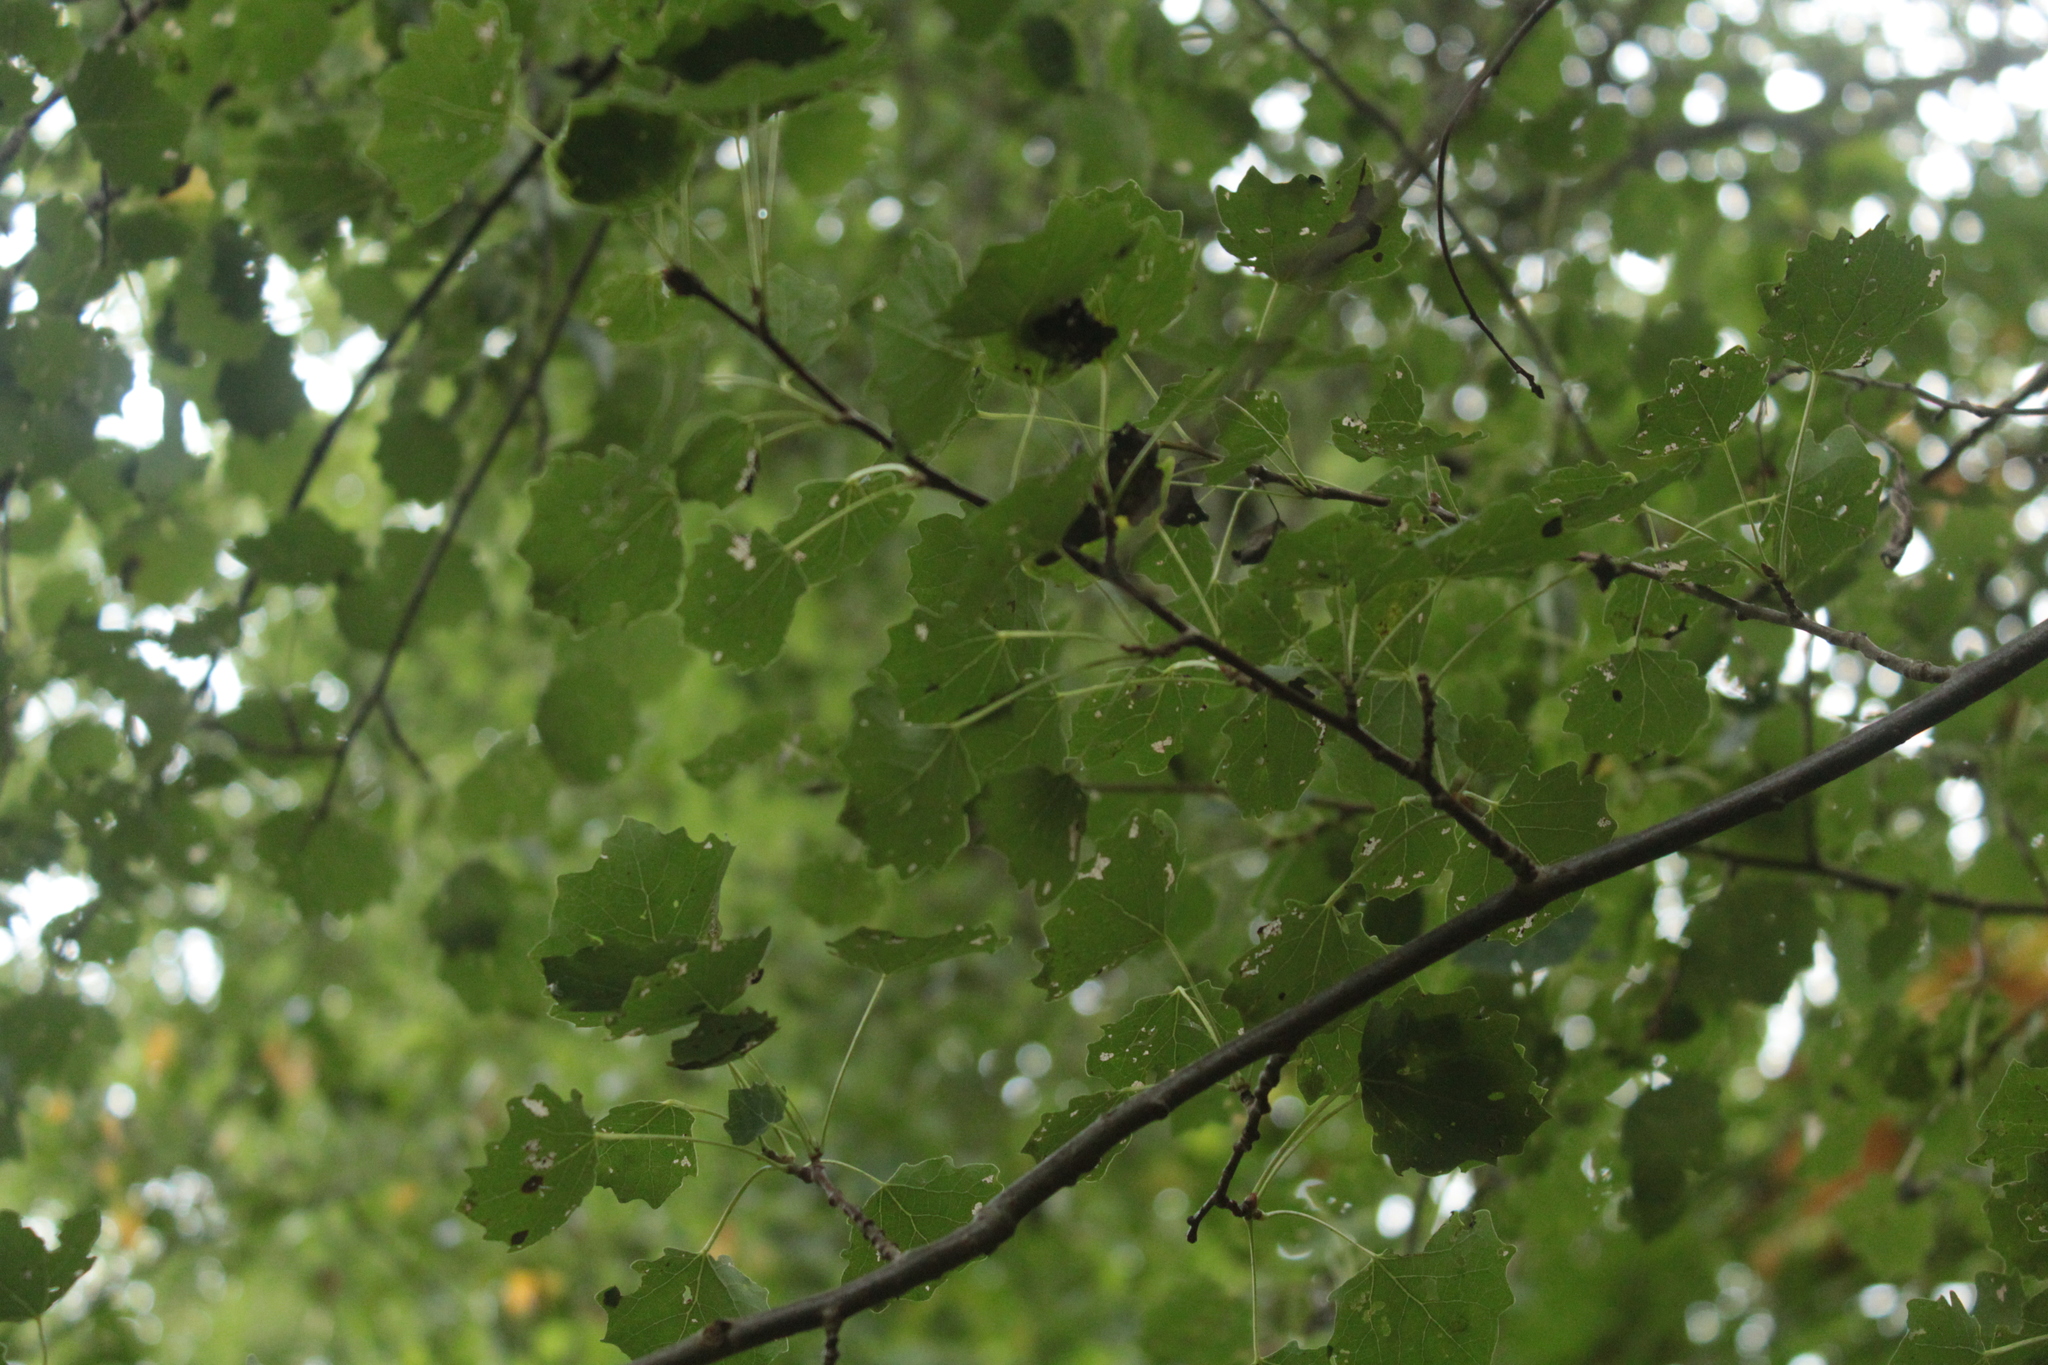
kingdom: Plantae
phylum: Tracheophyta
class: Magnoliopsida
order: Malpighiales
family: Salicaceae
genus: Populus
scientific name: Populus tremula
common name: European aspen
